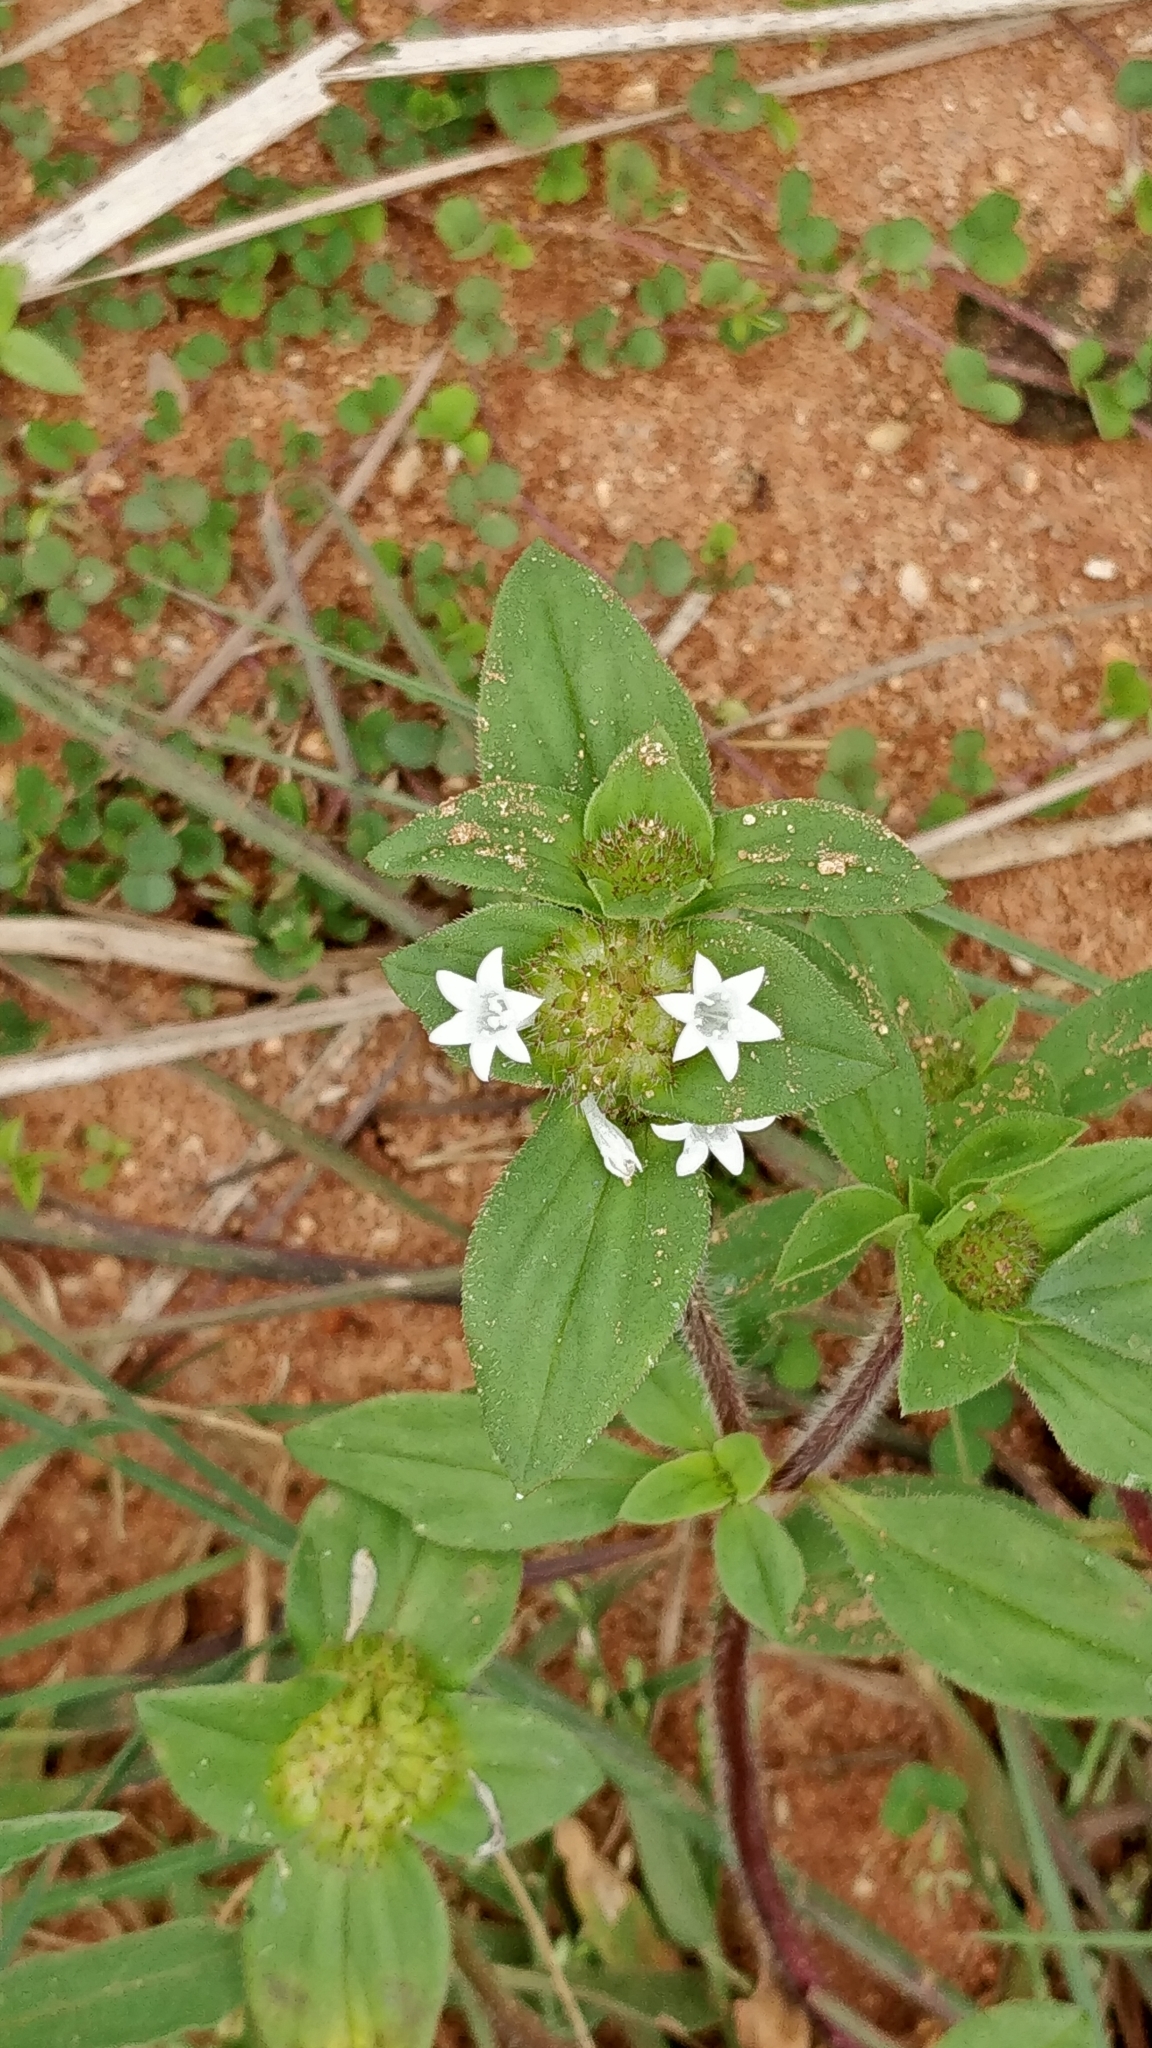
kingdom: Plantae
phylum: Tracheophyta
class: Magnoliopsida
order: Gentianales
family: Rubiaceae
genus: Richardia
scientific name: Richardia scabra
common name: Rough mexican clover
